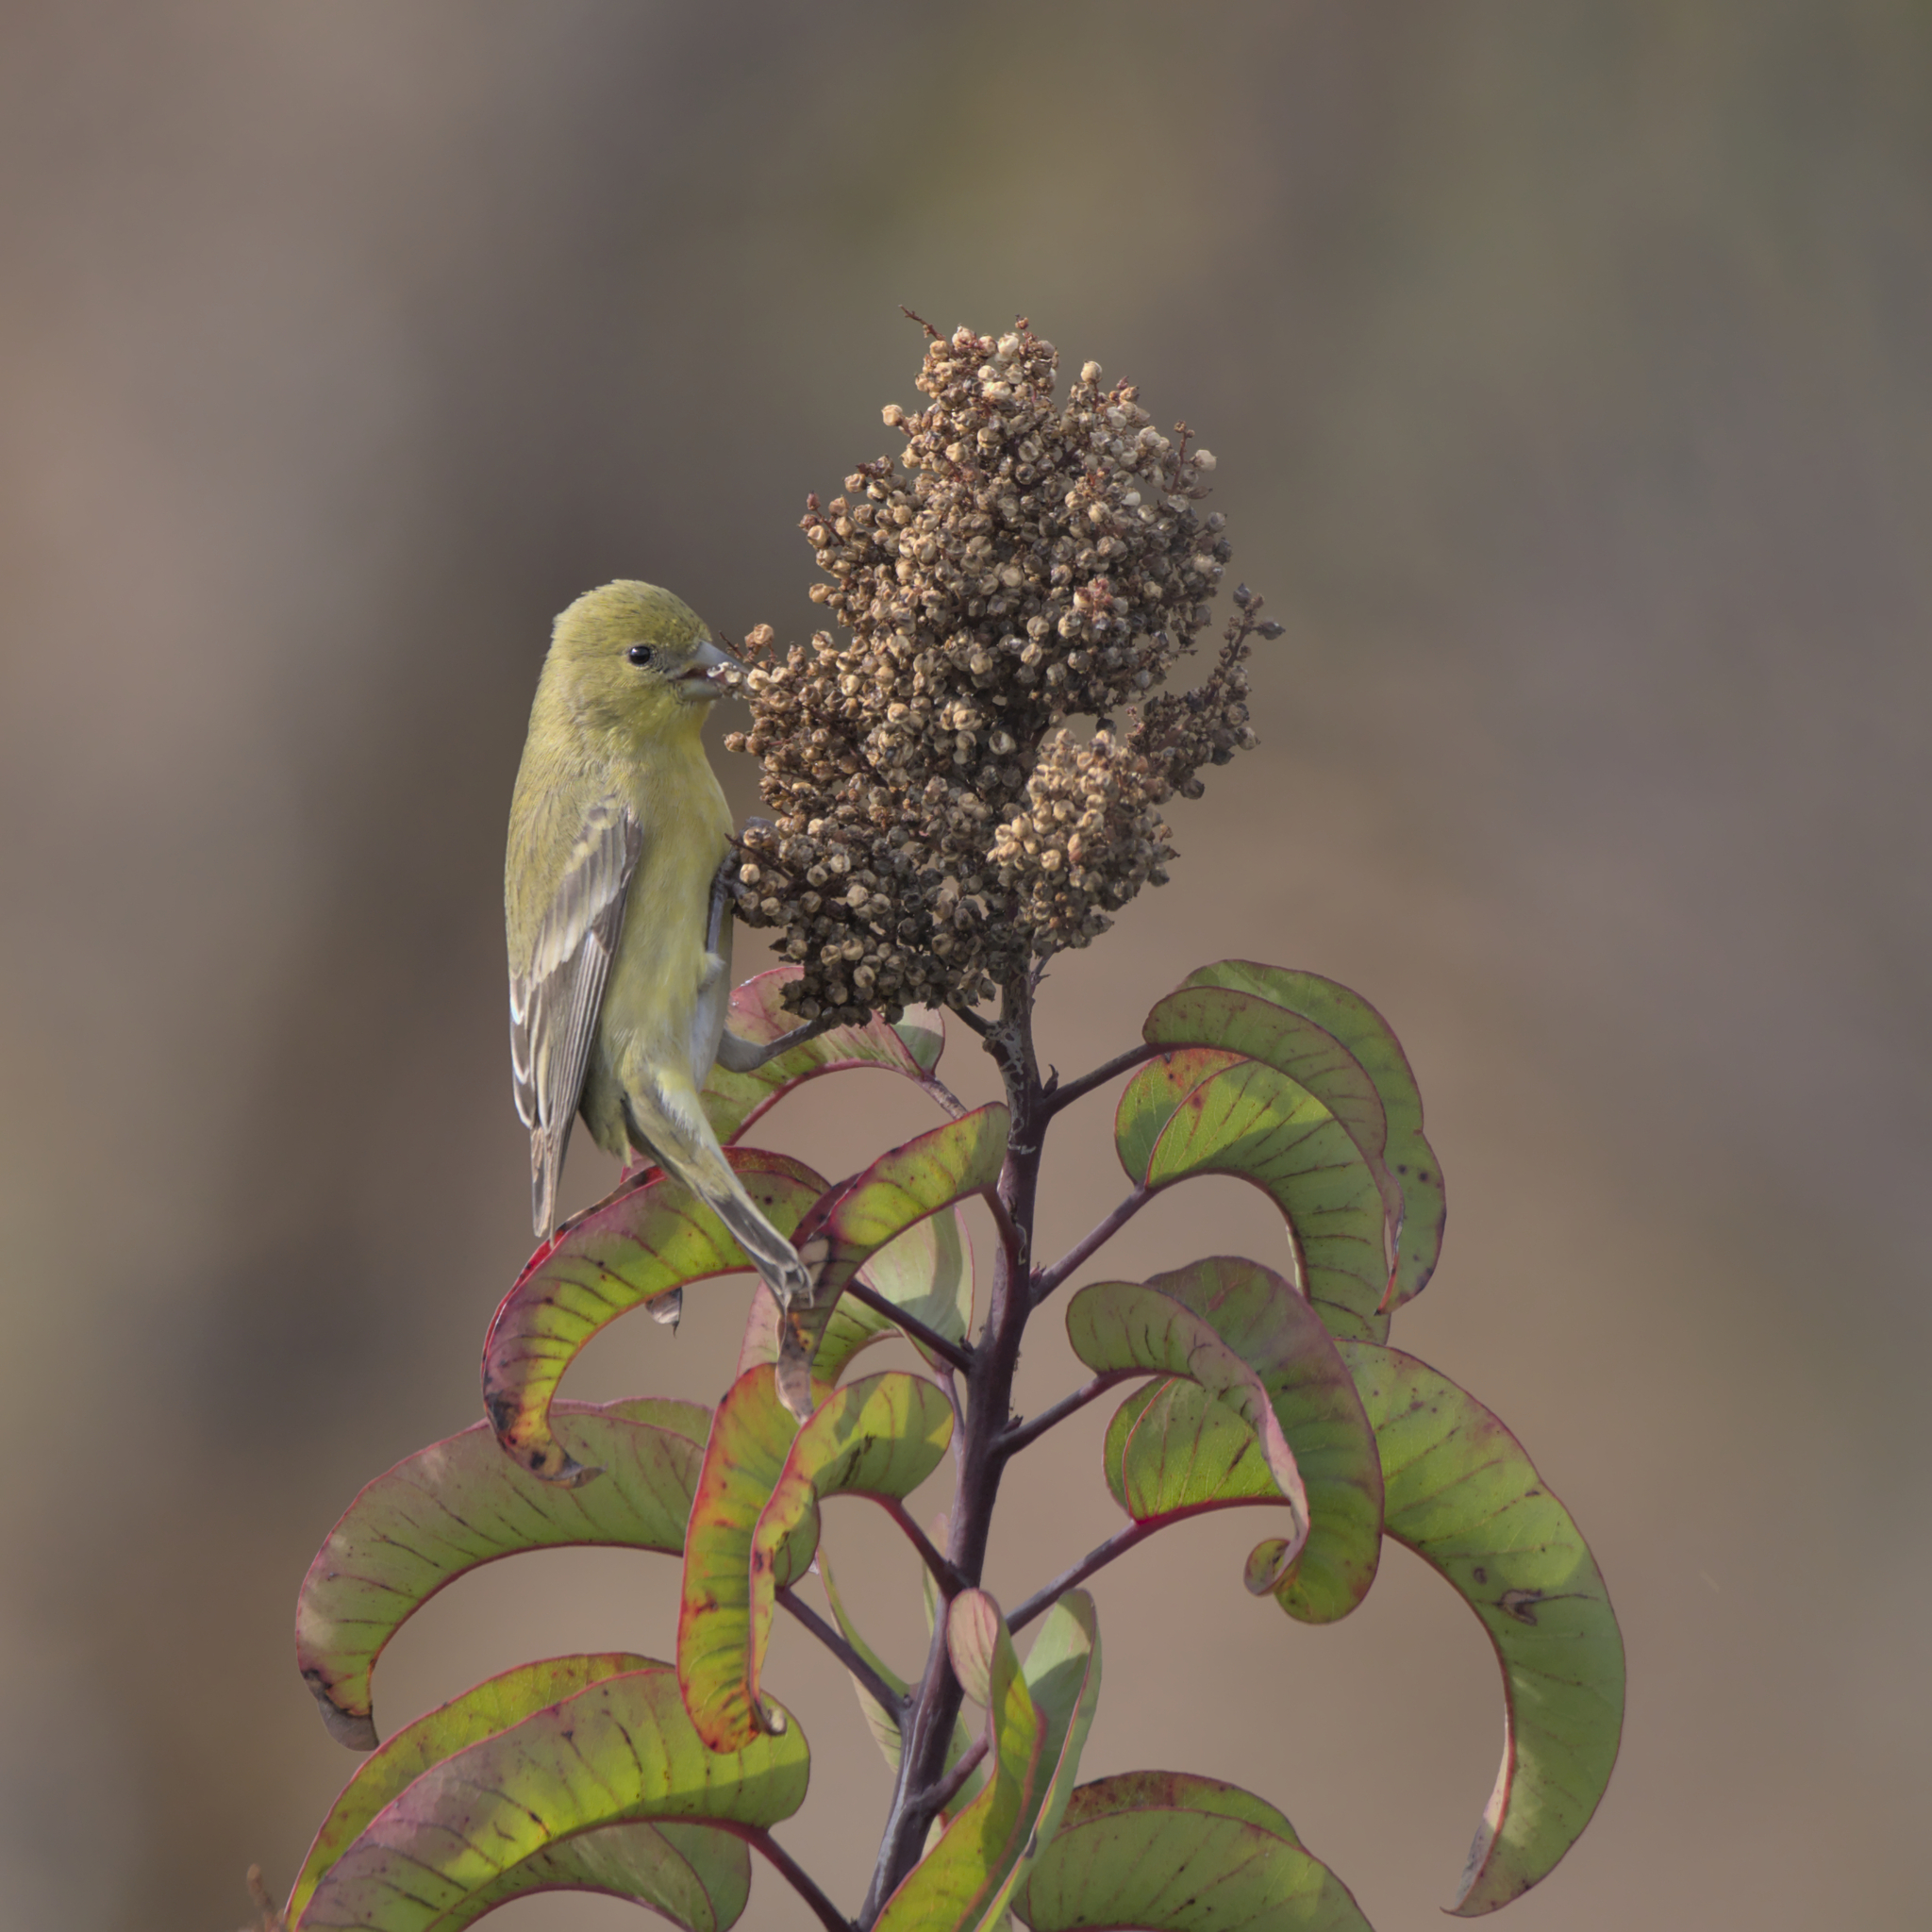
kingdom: Animalia
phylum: Chordata
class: Aves
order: Passeriformes
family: Fringillidae
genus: Spinus
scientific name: Spinus psaltria
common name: Lesser goldfinch
